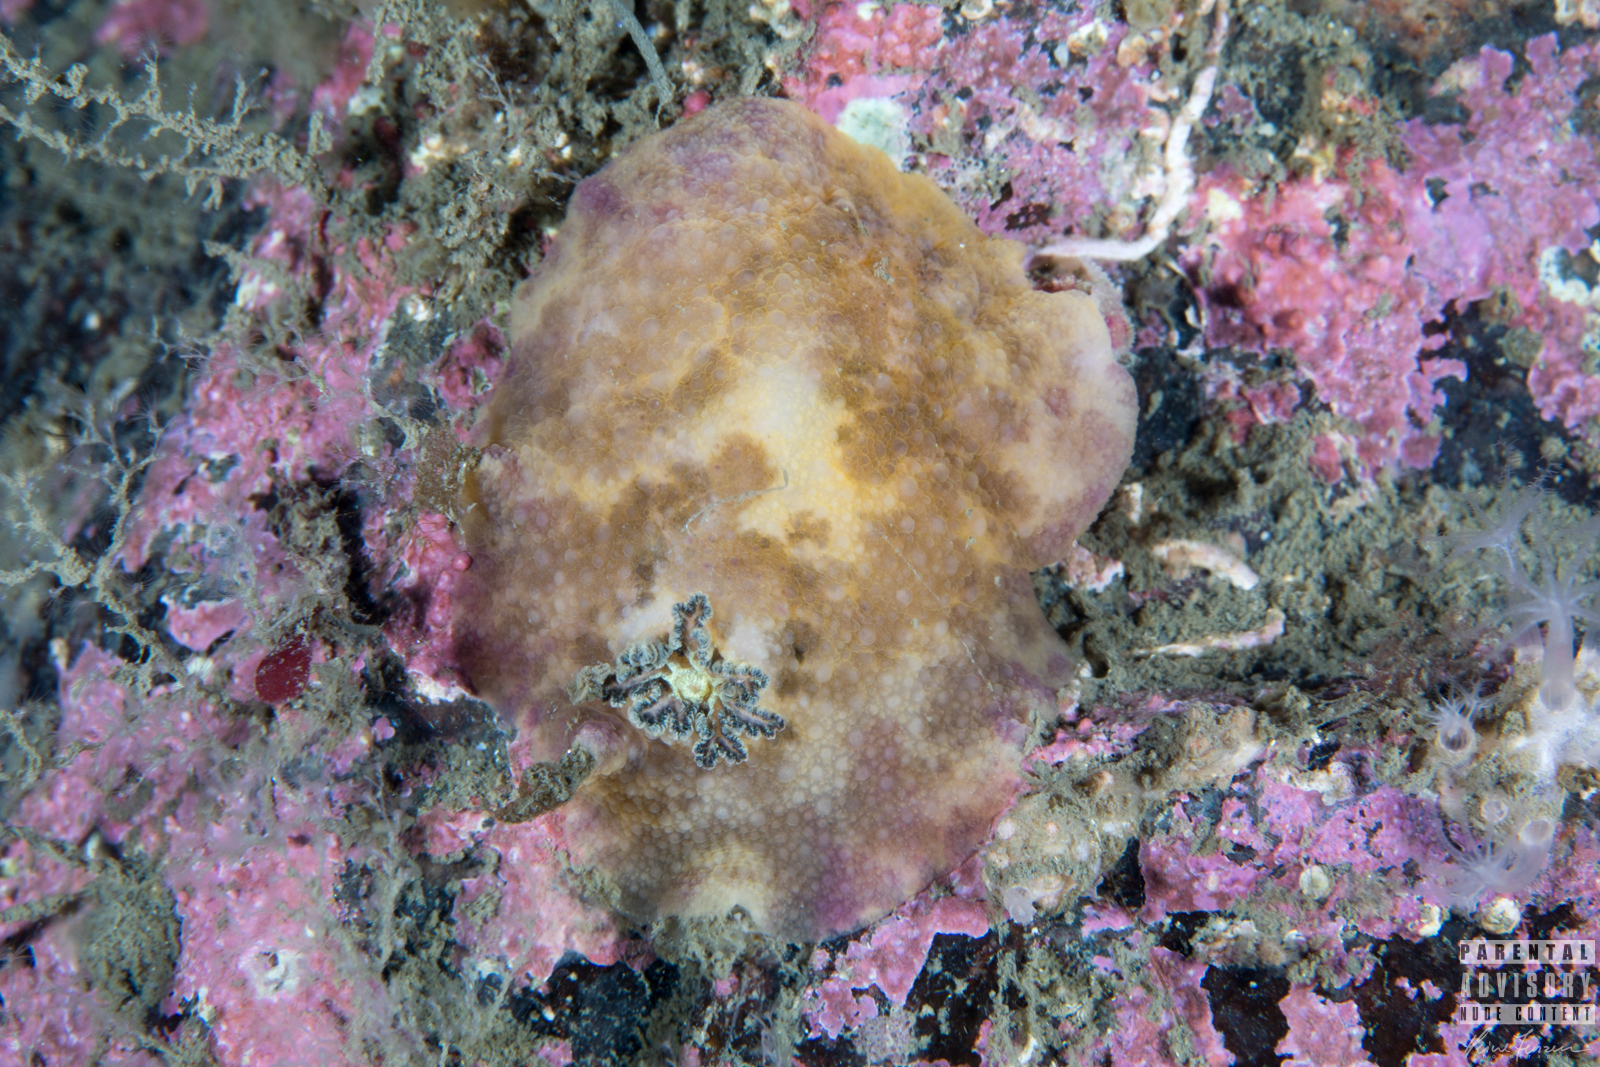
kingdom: Animalia
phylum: Mollusca
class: Gastropoda
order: Nudibranchia
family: Dorididae
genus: Doris
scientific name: Doris pseudoargus
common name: Sea lemon
